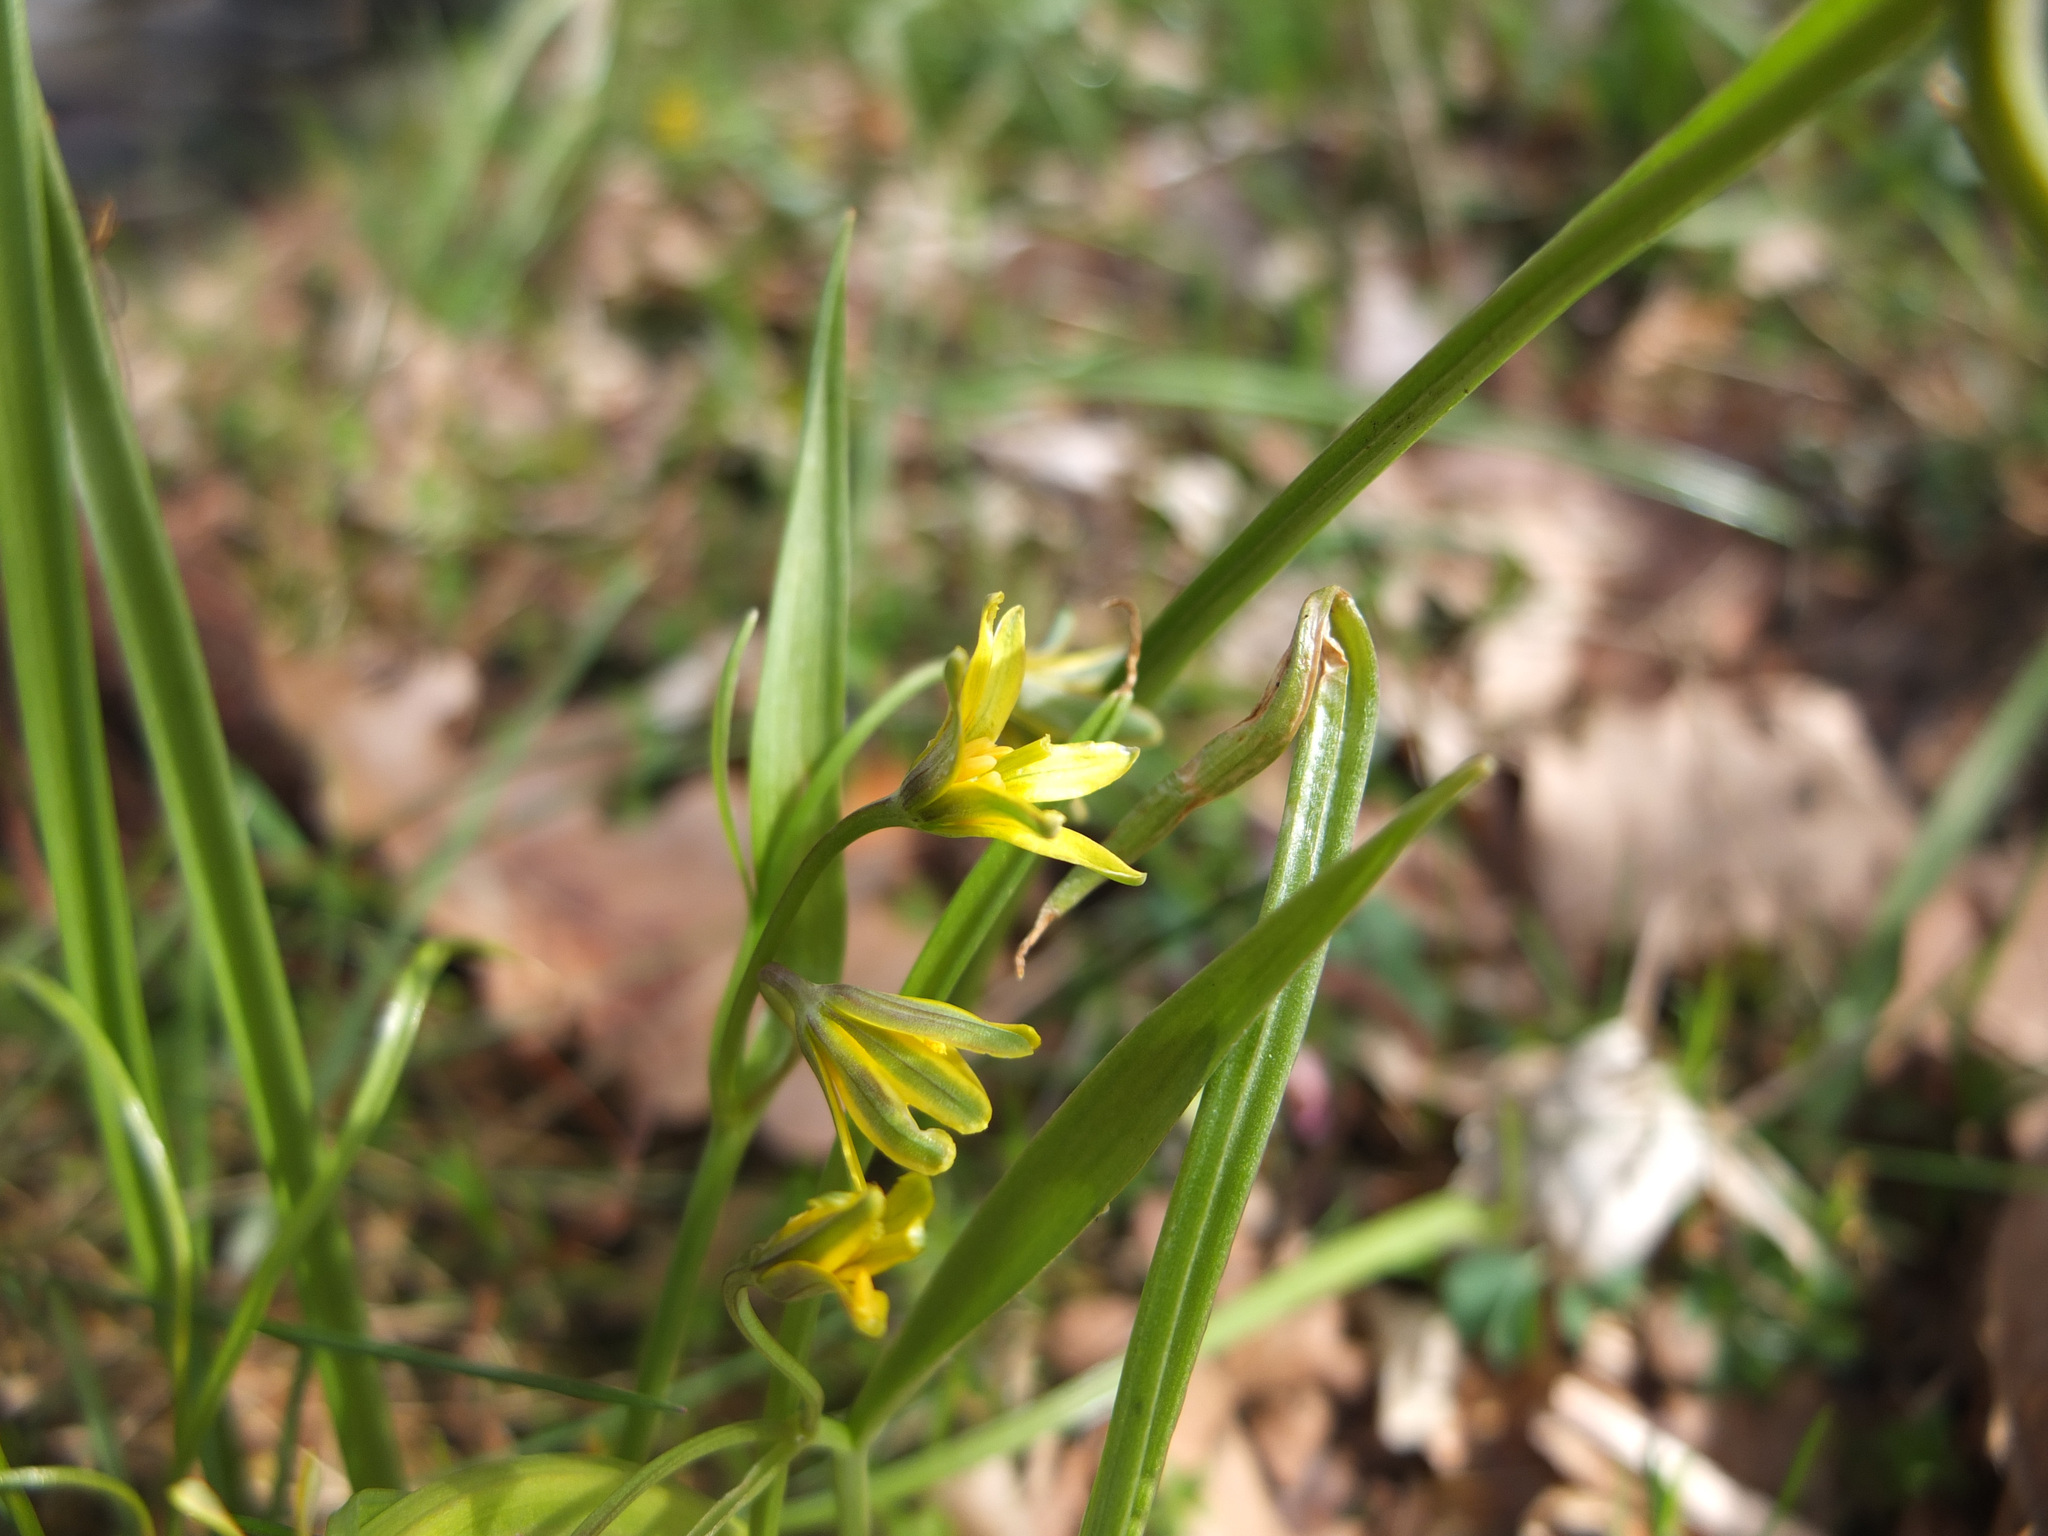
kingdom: Plantae
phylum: Tracheophyta
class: Liliopsida
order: Liliales
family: Liliaceae
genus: Gagea
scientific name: Gagea lutea
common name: Yellow star-of-bethlehem
